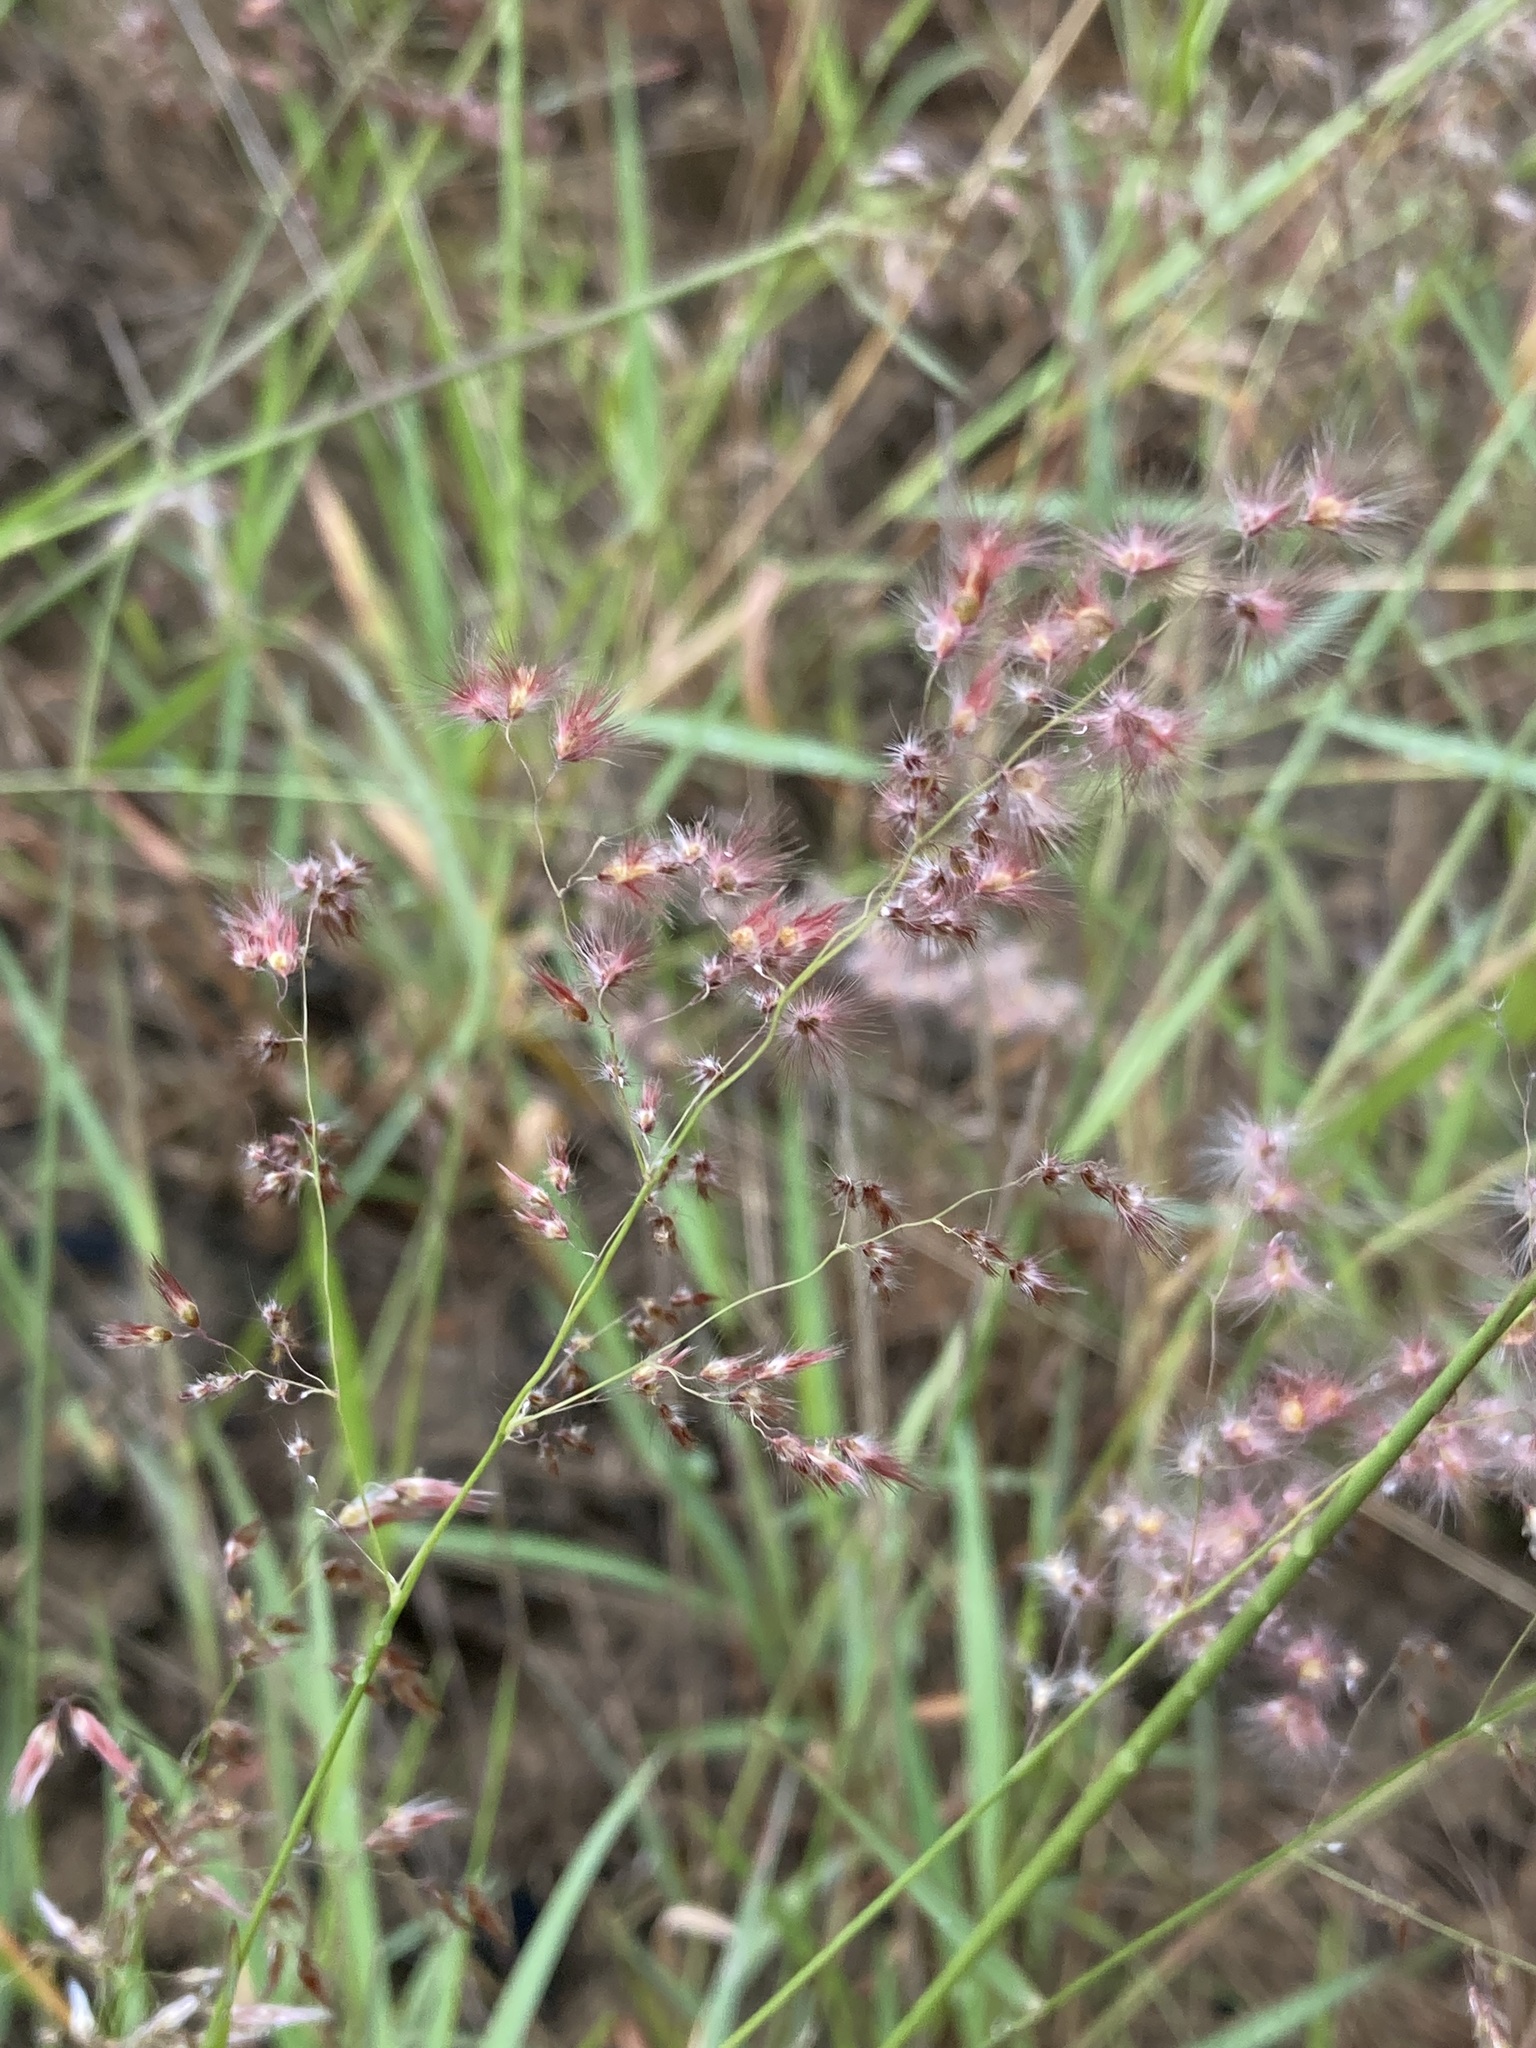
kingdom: Plantae
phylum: Tracheophyta
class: Liliopsida
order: Poales
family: Poaceae
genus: Melinis
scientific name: Melinis repens
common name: Rose natal grass
